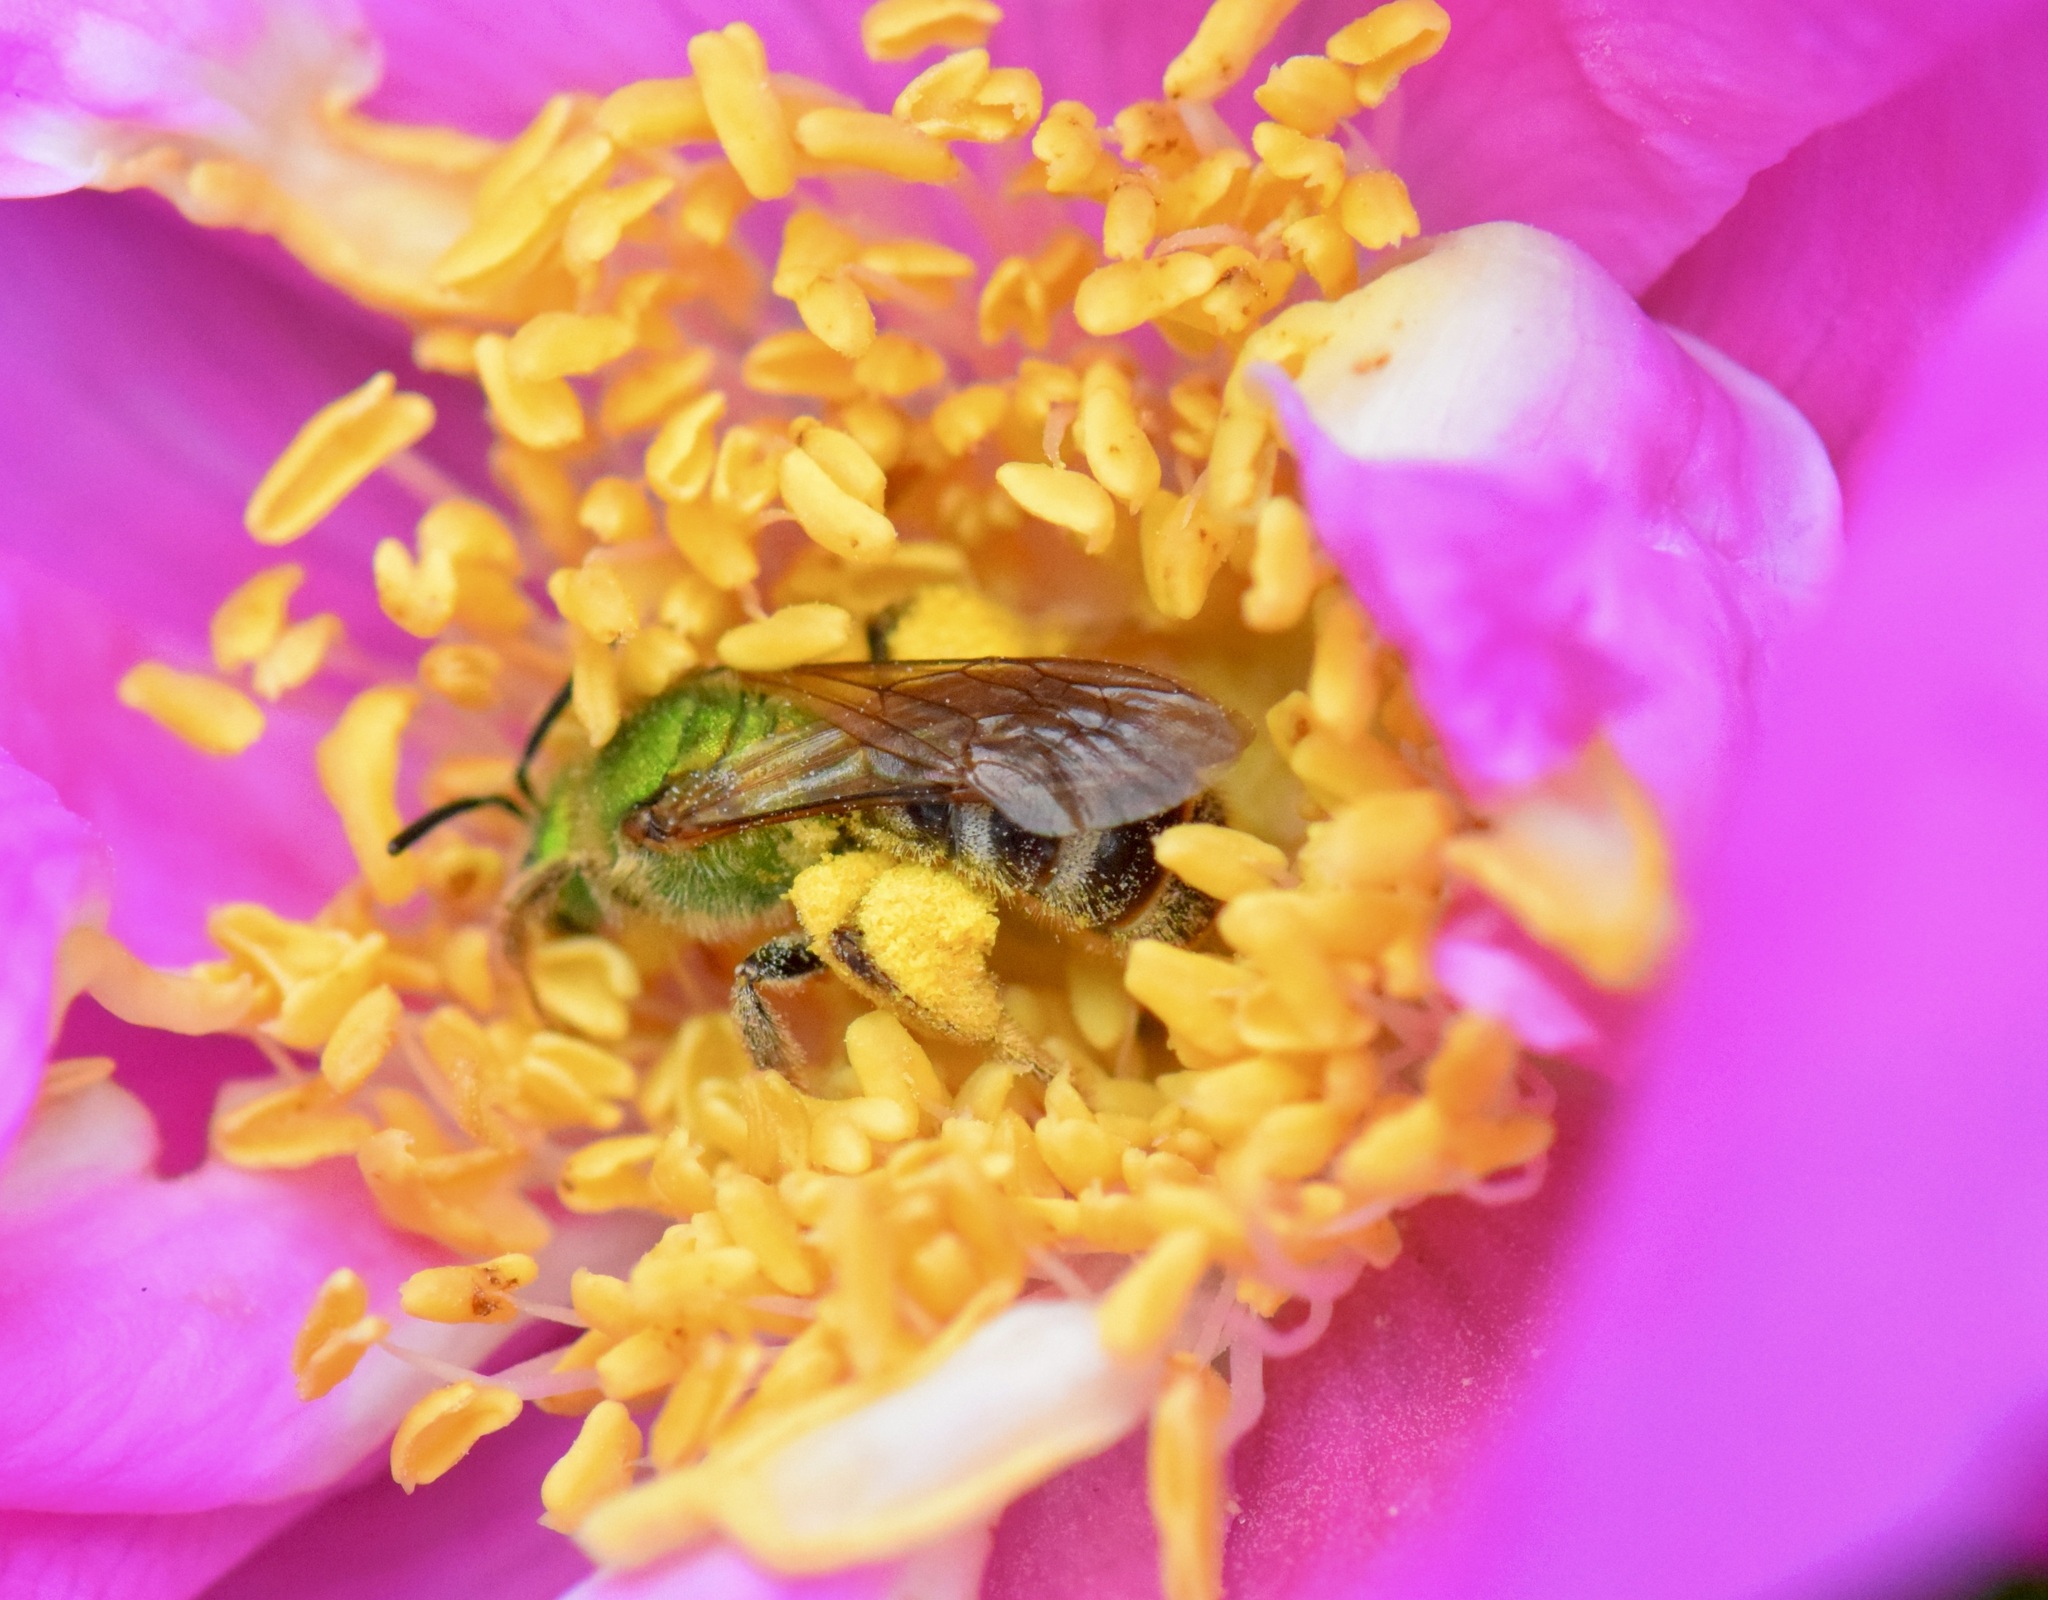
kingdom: Animalia
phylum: Arthropoda
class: Insecta
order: Hymenoptera
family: Halictidae
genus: Agapostemon
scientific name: Agapostemon virescens
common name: Bicolored striped sweat bee
